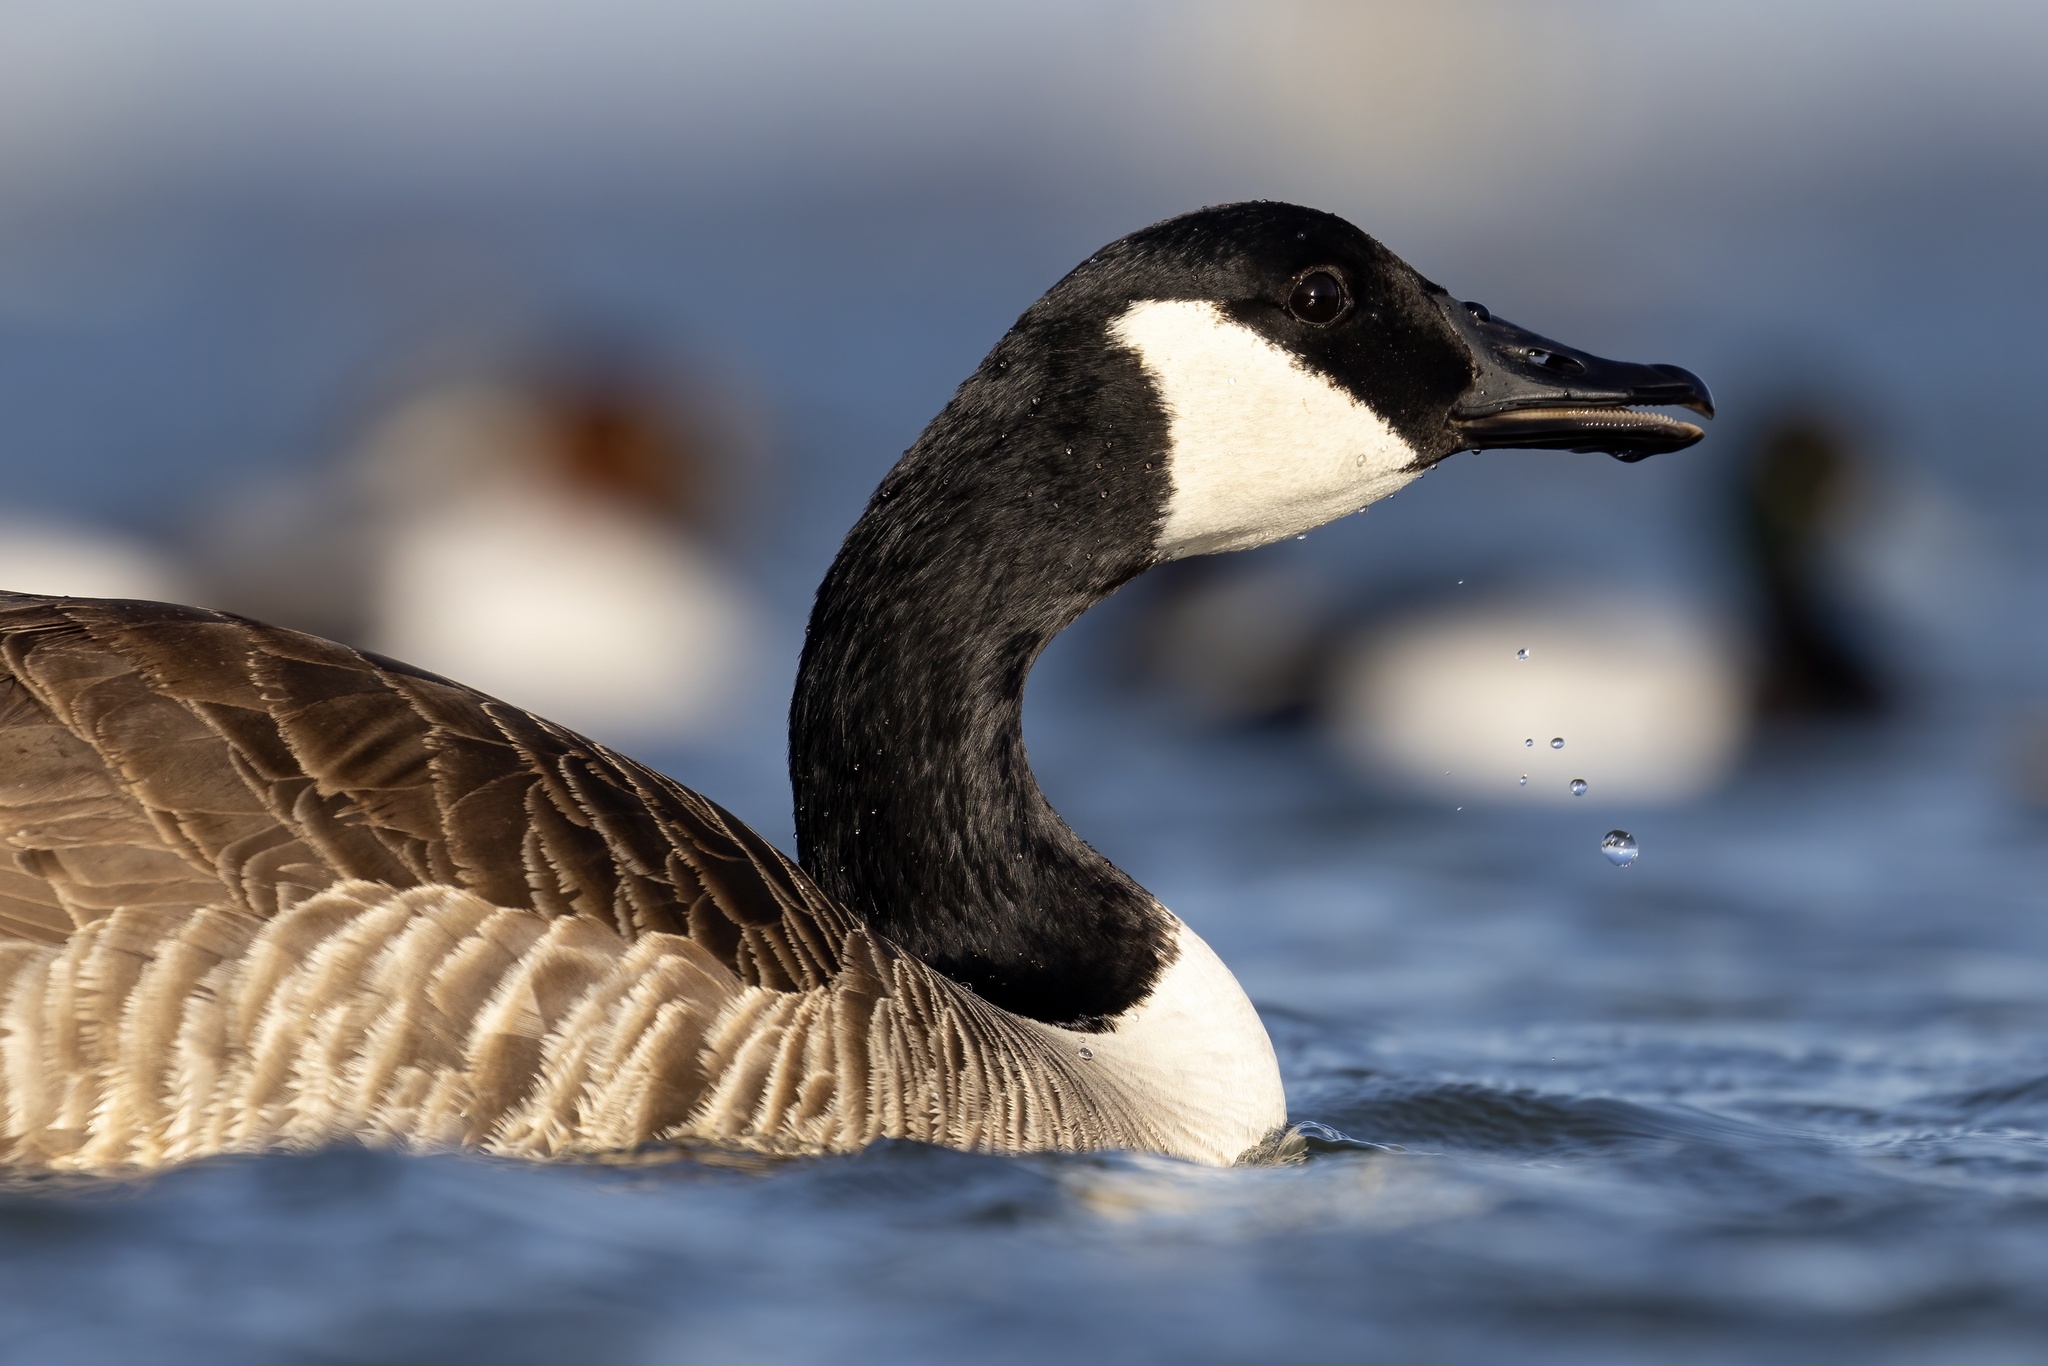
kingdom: Animalia
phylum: Chordata
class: Aves
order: Anseriformes
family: Anatidae
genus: Branta
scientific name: Branta canadensis
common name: Canada goose
